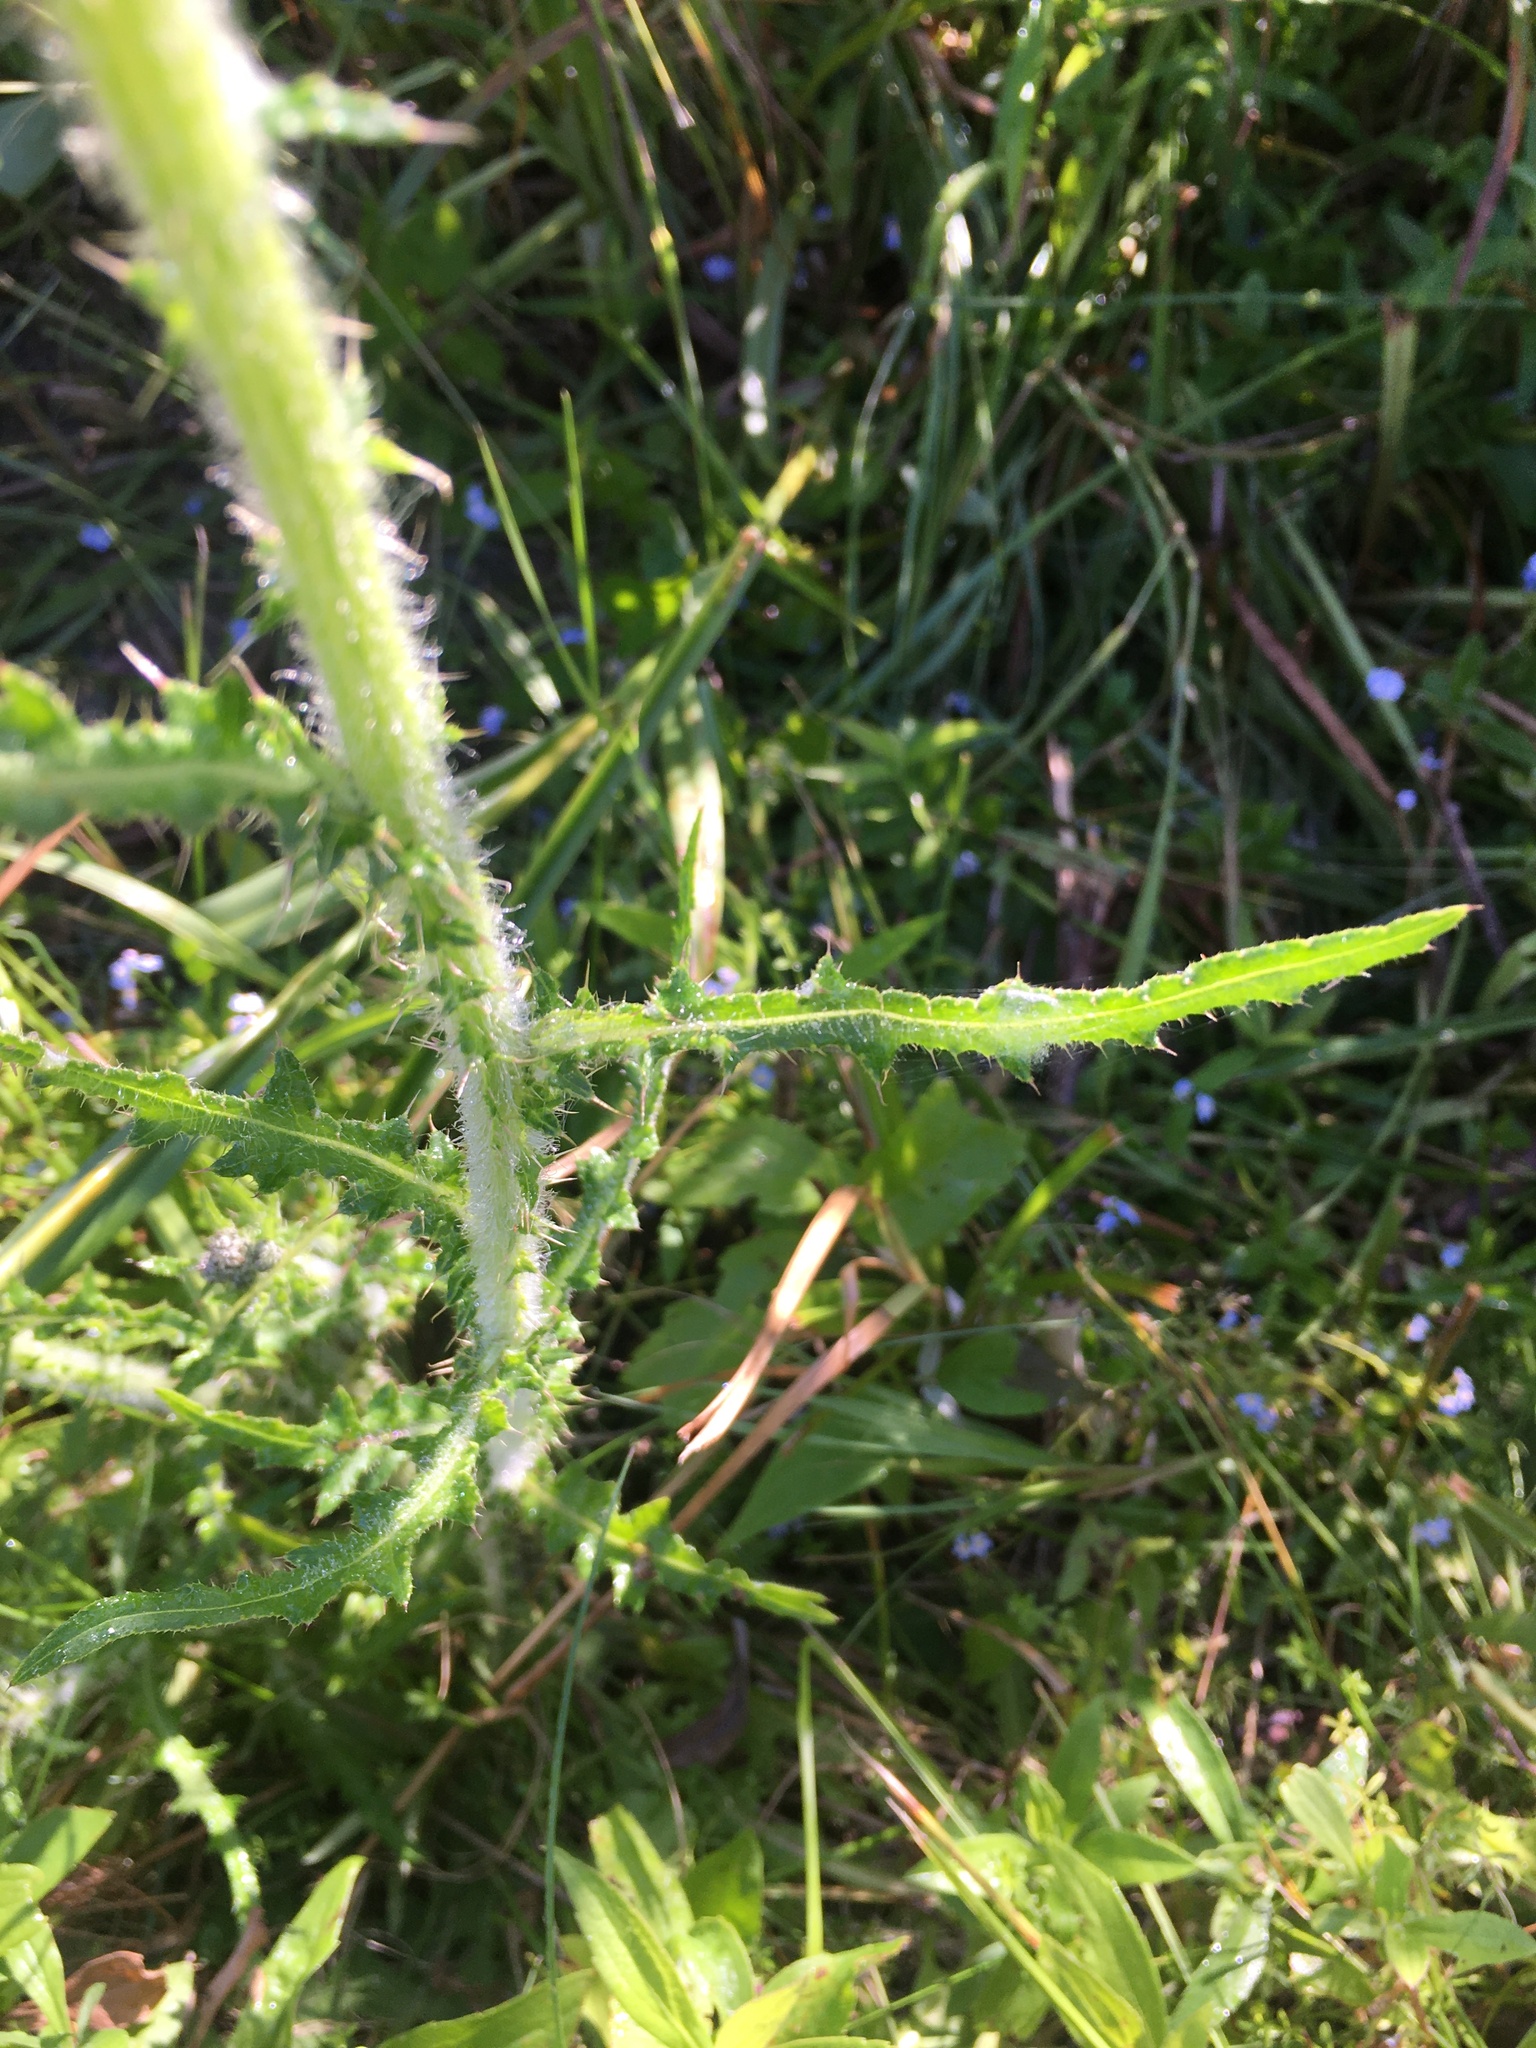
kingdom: Plantae
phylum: Tracheophyta
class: Magnoliopsida
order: Asterales
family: Asteraceae
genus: Cirsium
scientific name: Cirsium palustre
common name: Marsh thistle
